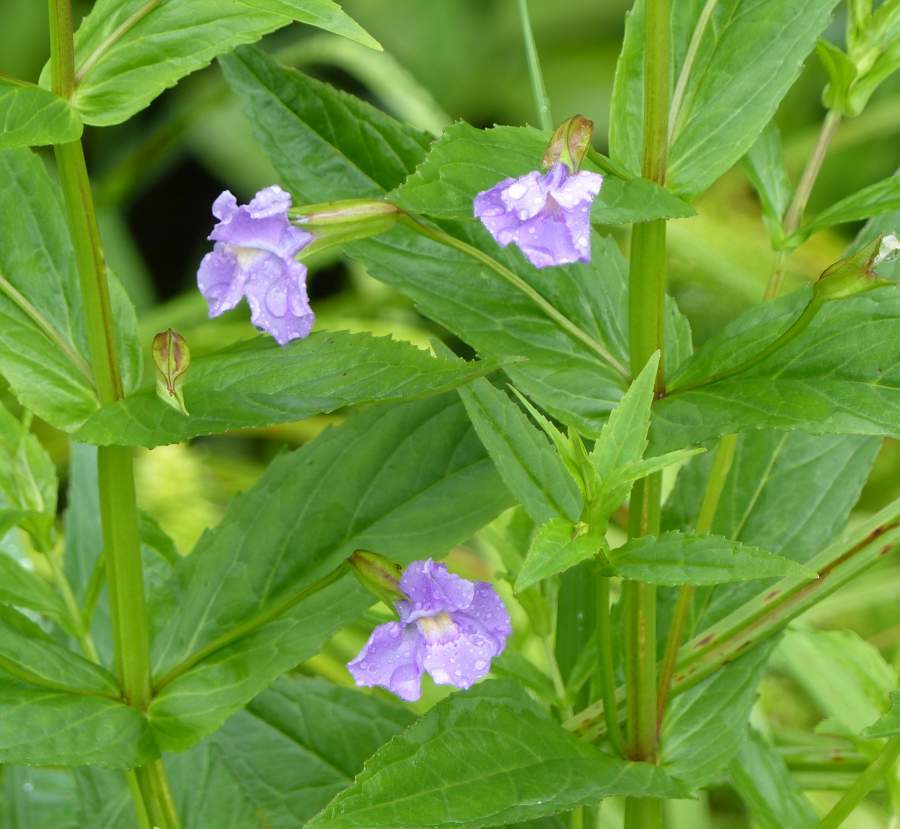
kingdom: Plantae
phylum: Tracheophyta
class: Magnoliopsida
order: Lamiales
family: Phrymaceae
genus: Mimulus
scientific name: Mimulus ringens
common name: Allegheny monkeyflower
